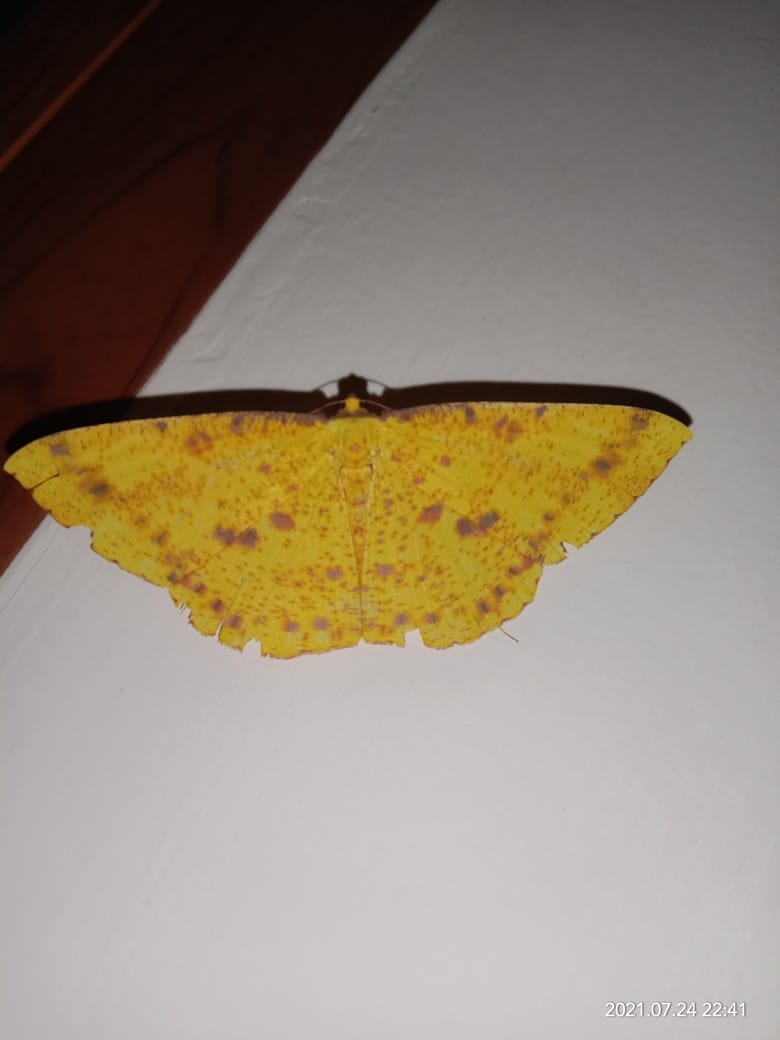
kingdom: Animalia
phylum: Arthropoda
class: Insecta
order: Lepidoptera
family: Geometridae
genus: Eumelea
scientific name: Eumelea ludovicata
